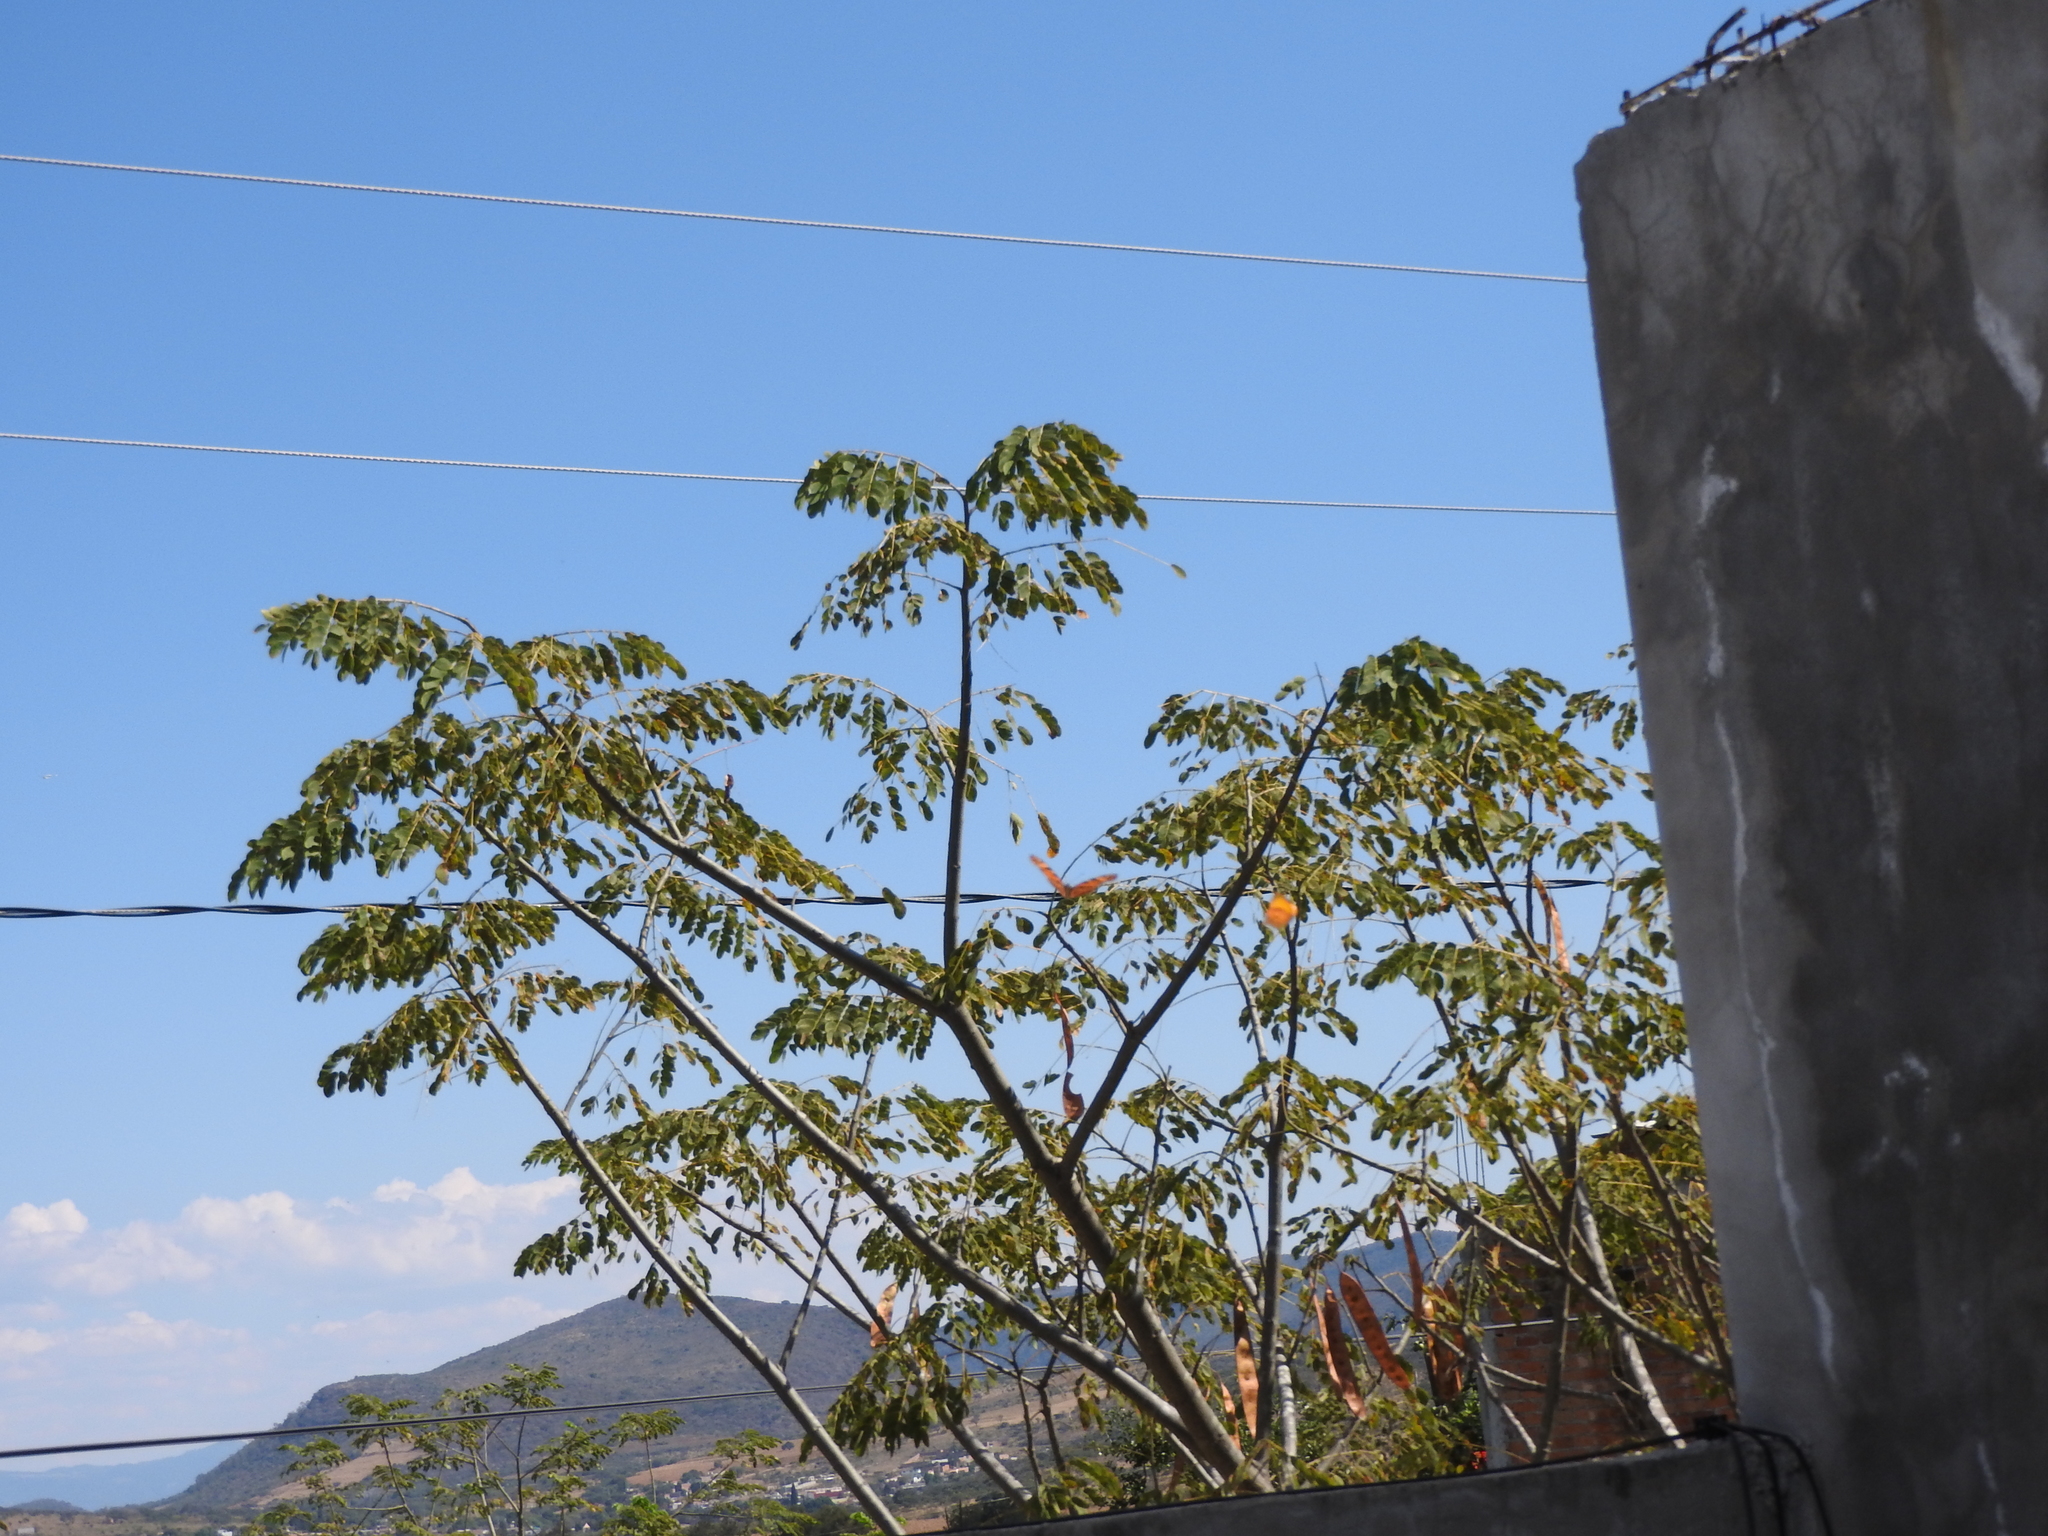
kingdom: Animalia
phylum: Arthropoda
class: Insecta
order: Lepidoptera
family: Nymphalidae
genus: Dione
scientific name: Dione juno
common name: Juno silverspot
